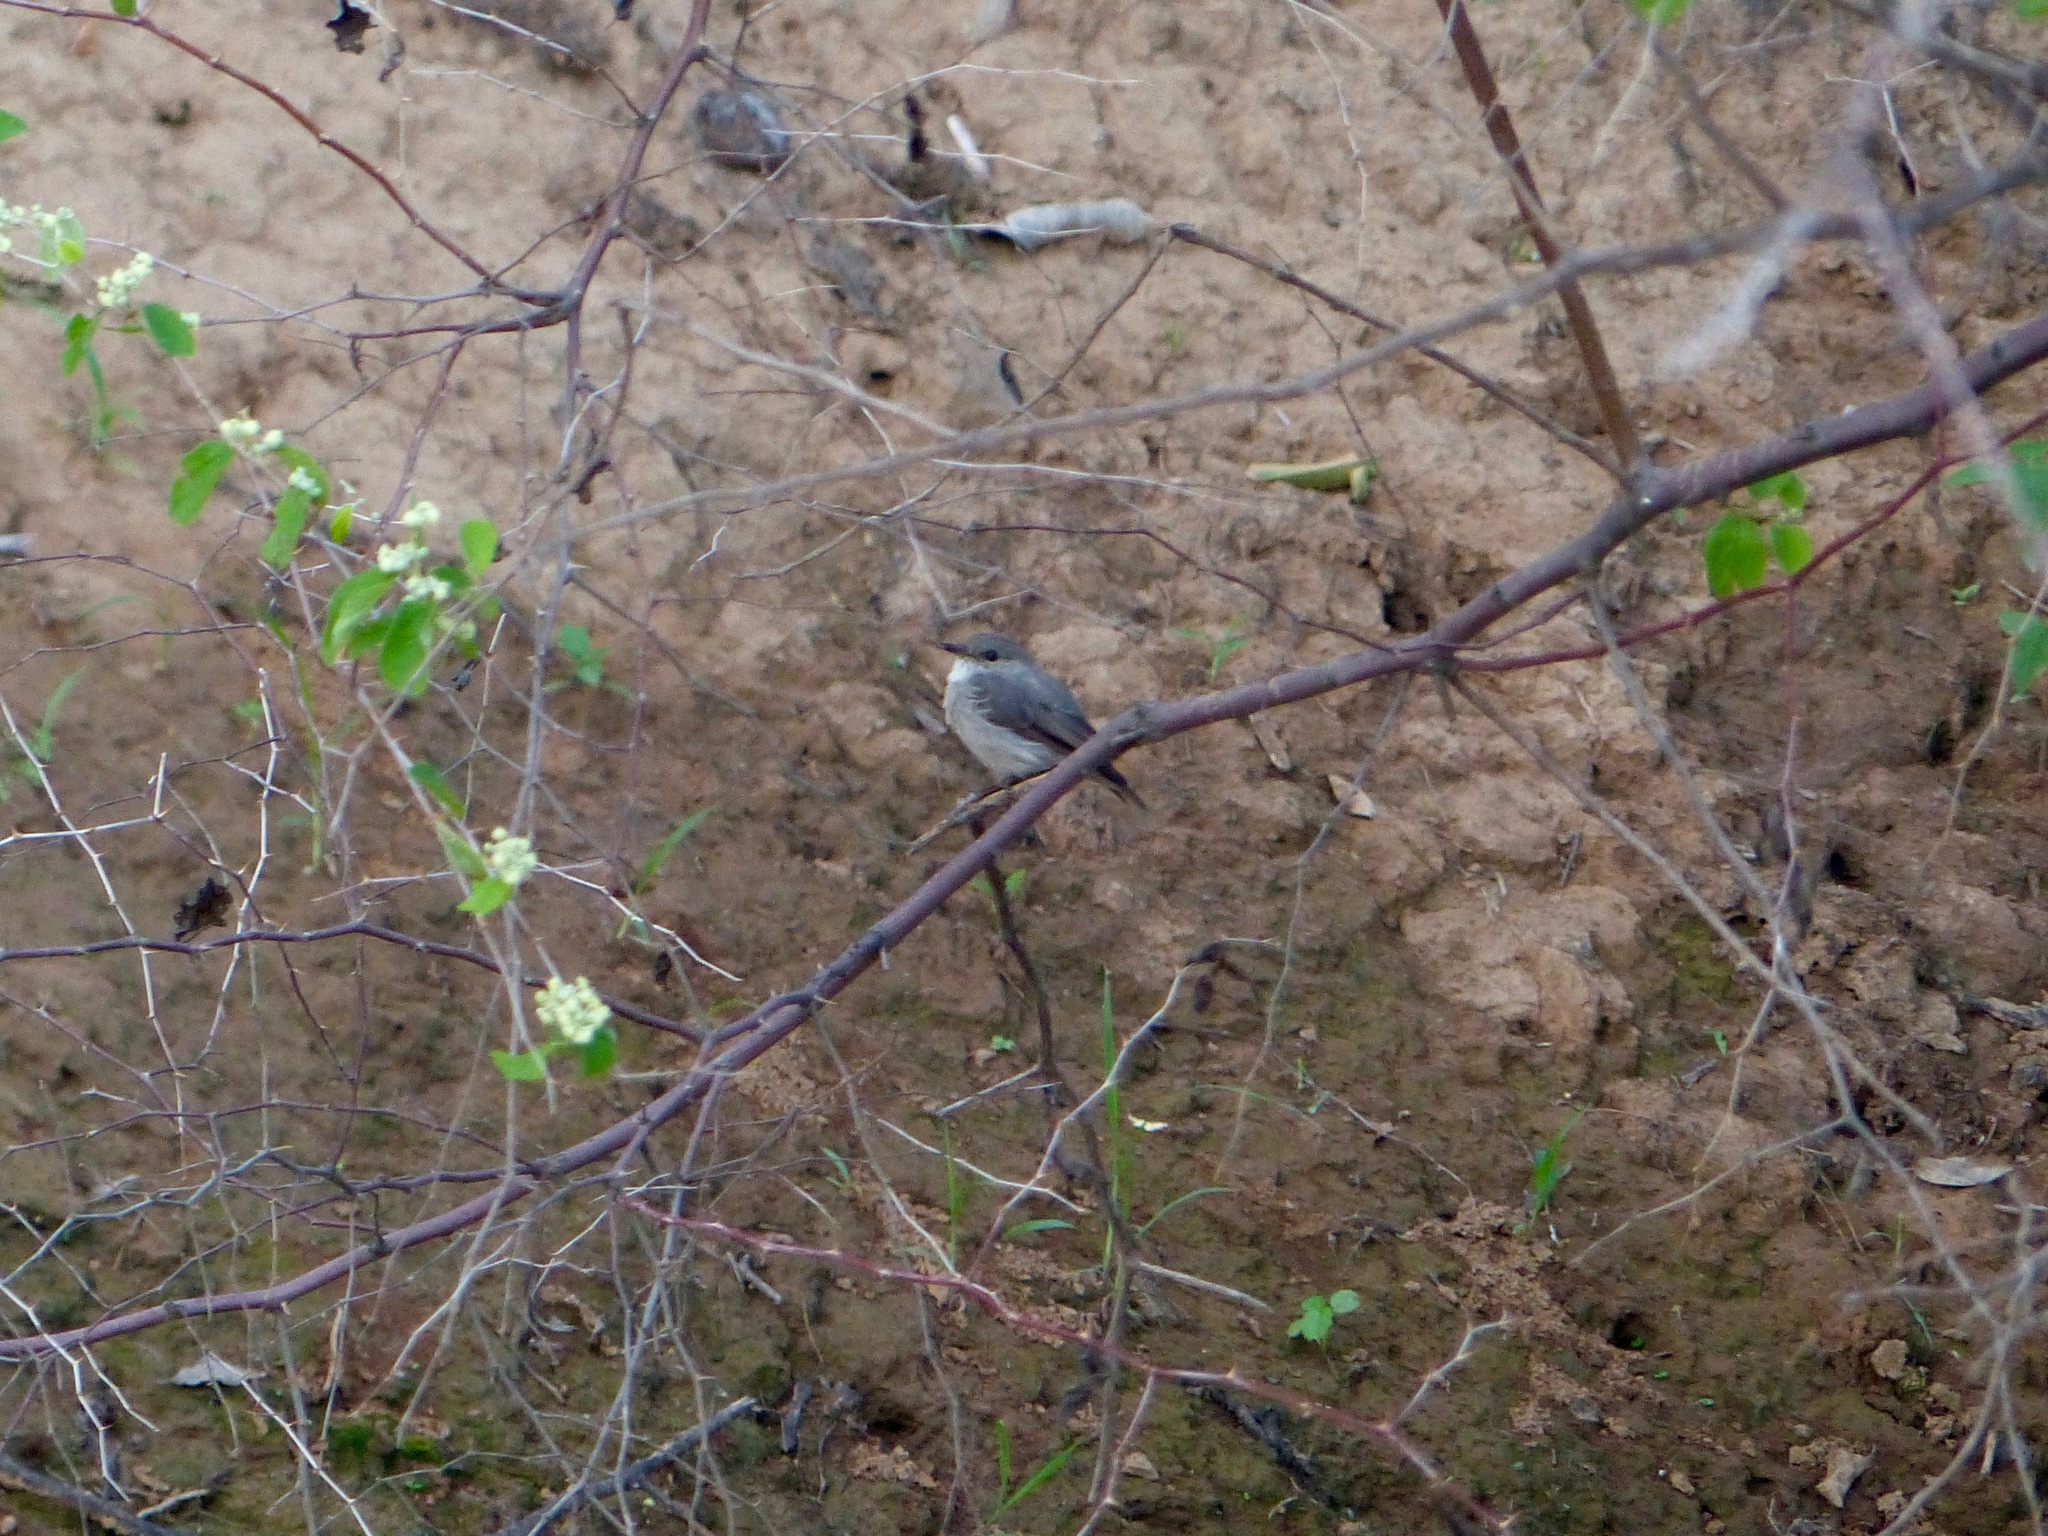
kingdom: Animalia
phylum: Chordata
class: Aves
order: Passeriformes
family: Muscicapidae
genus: Muscicapa
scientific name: Muscicapa aquatica
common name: Swamp flycatcher
